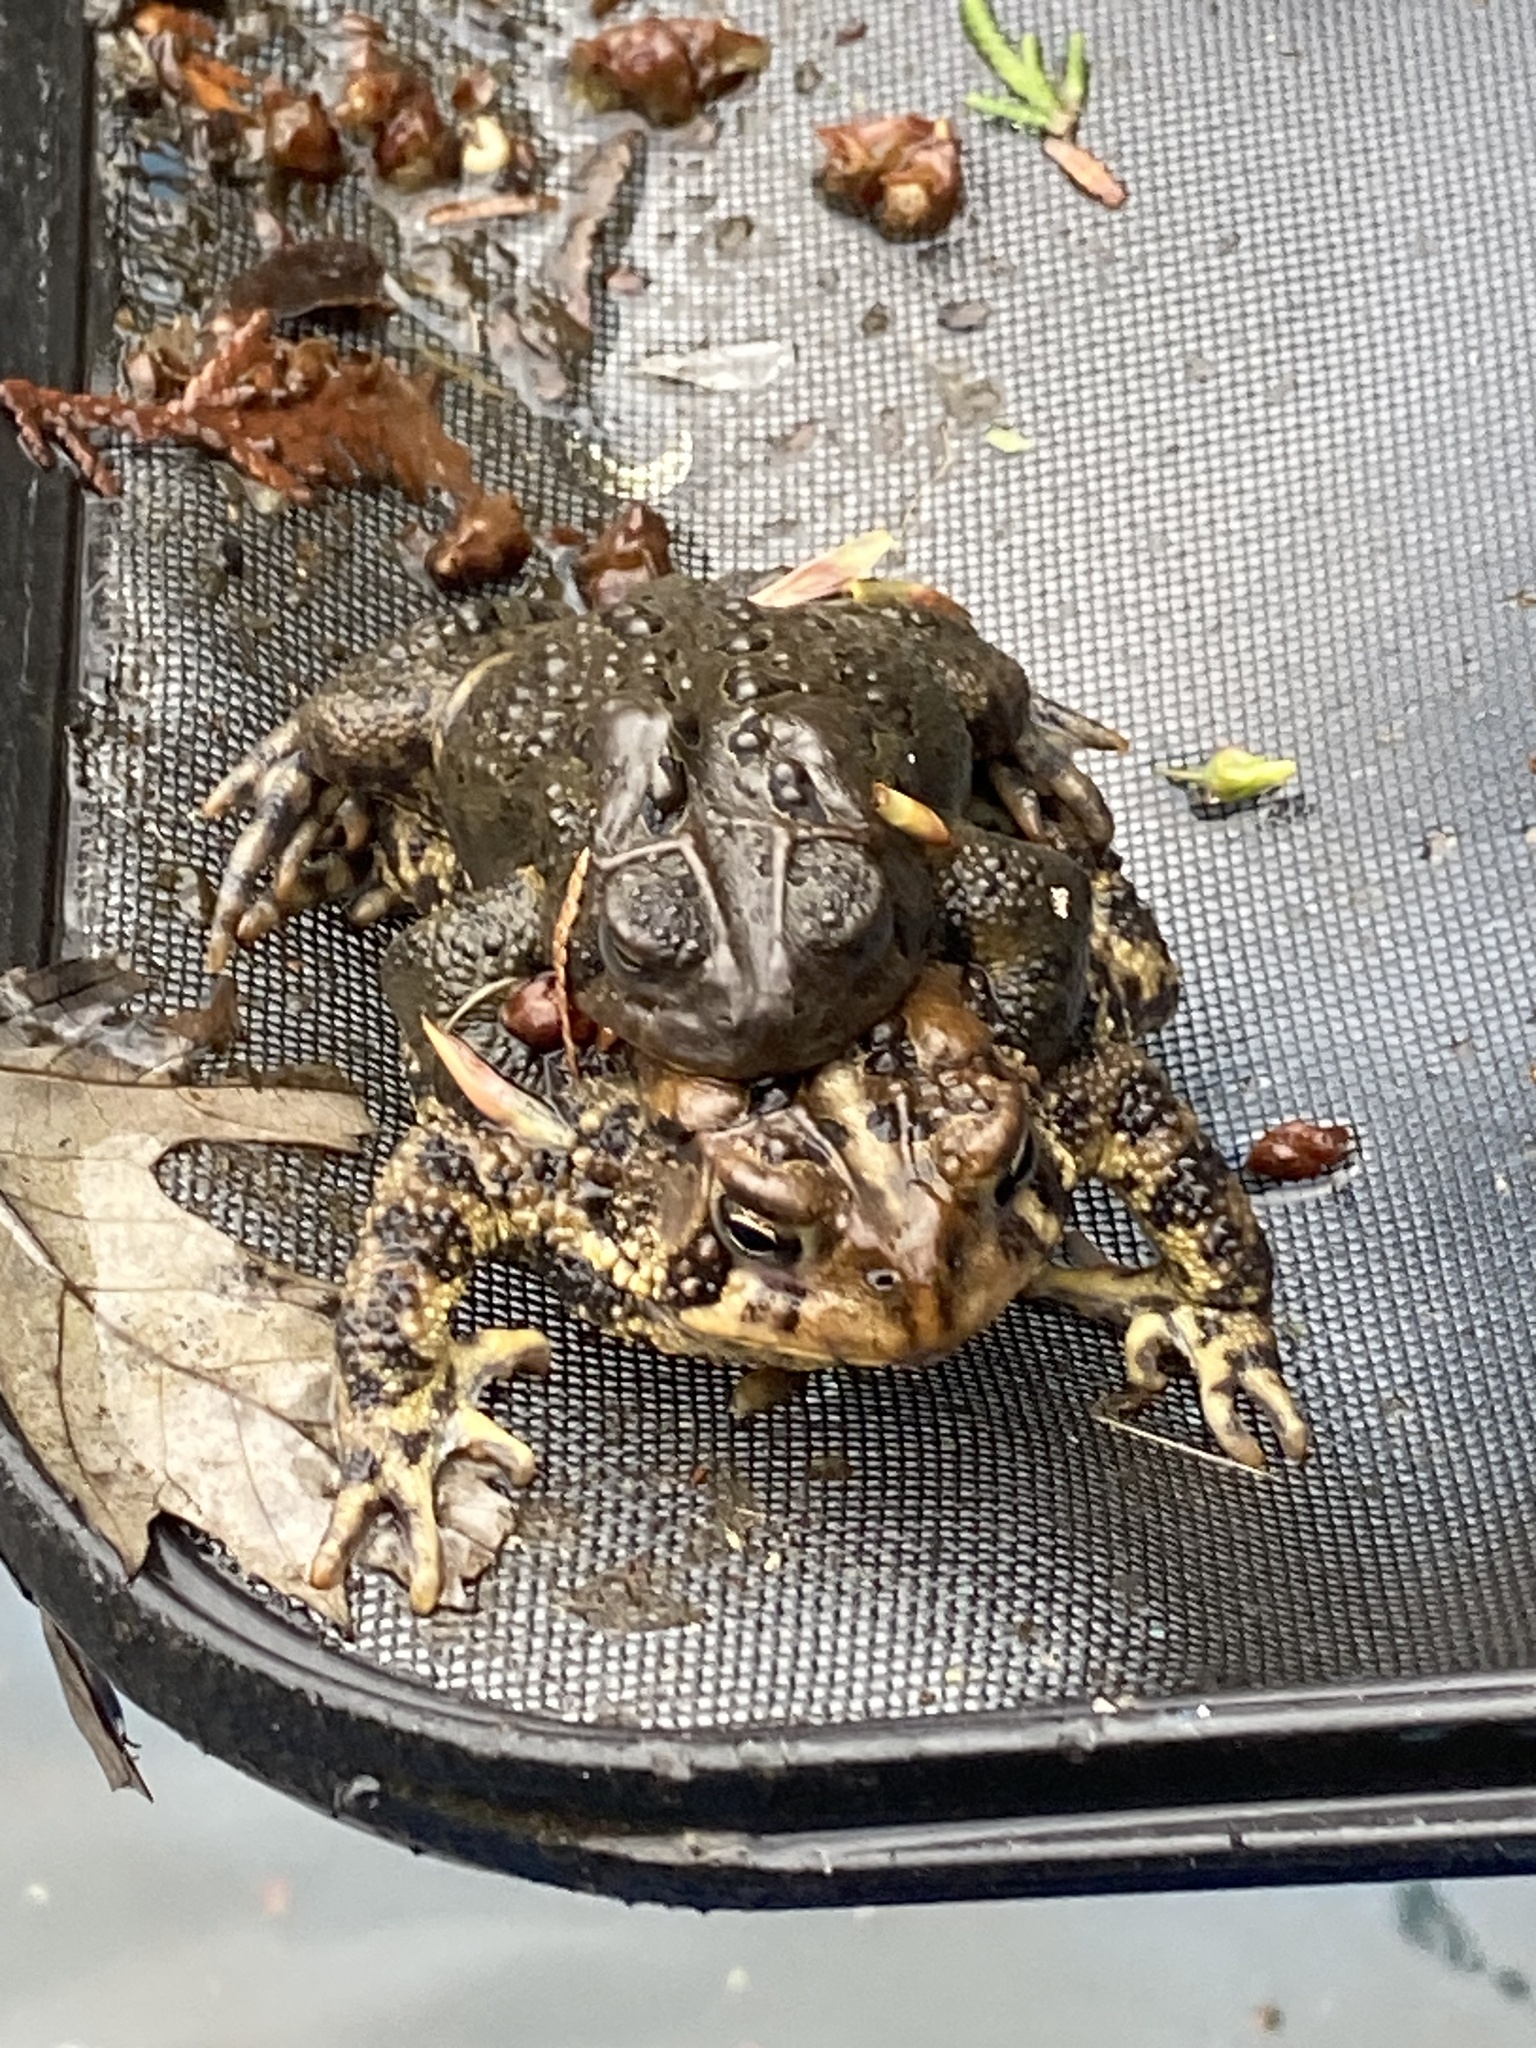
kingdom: Animalia
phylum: Chordata
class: Amphibia
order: Anura
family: Bufonidae
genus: Anaxyrus
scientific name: Anaxyrus americanus
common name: American toad
